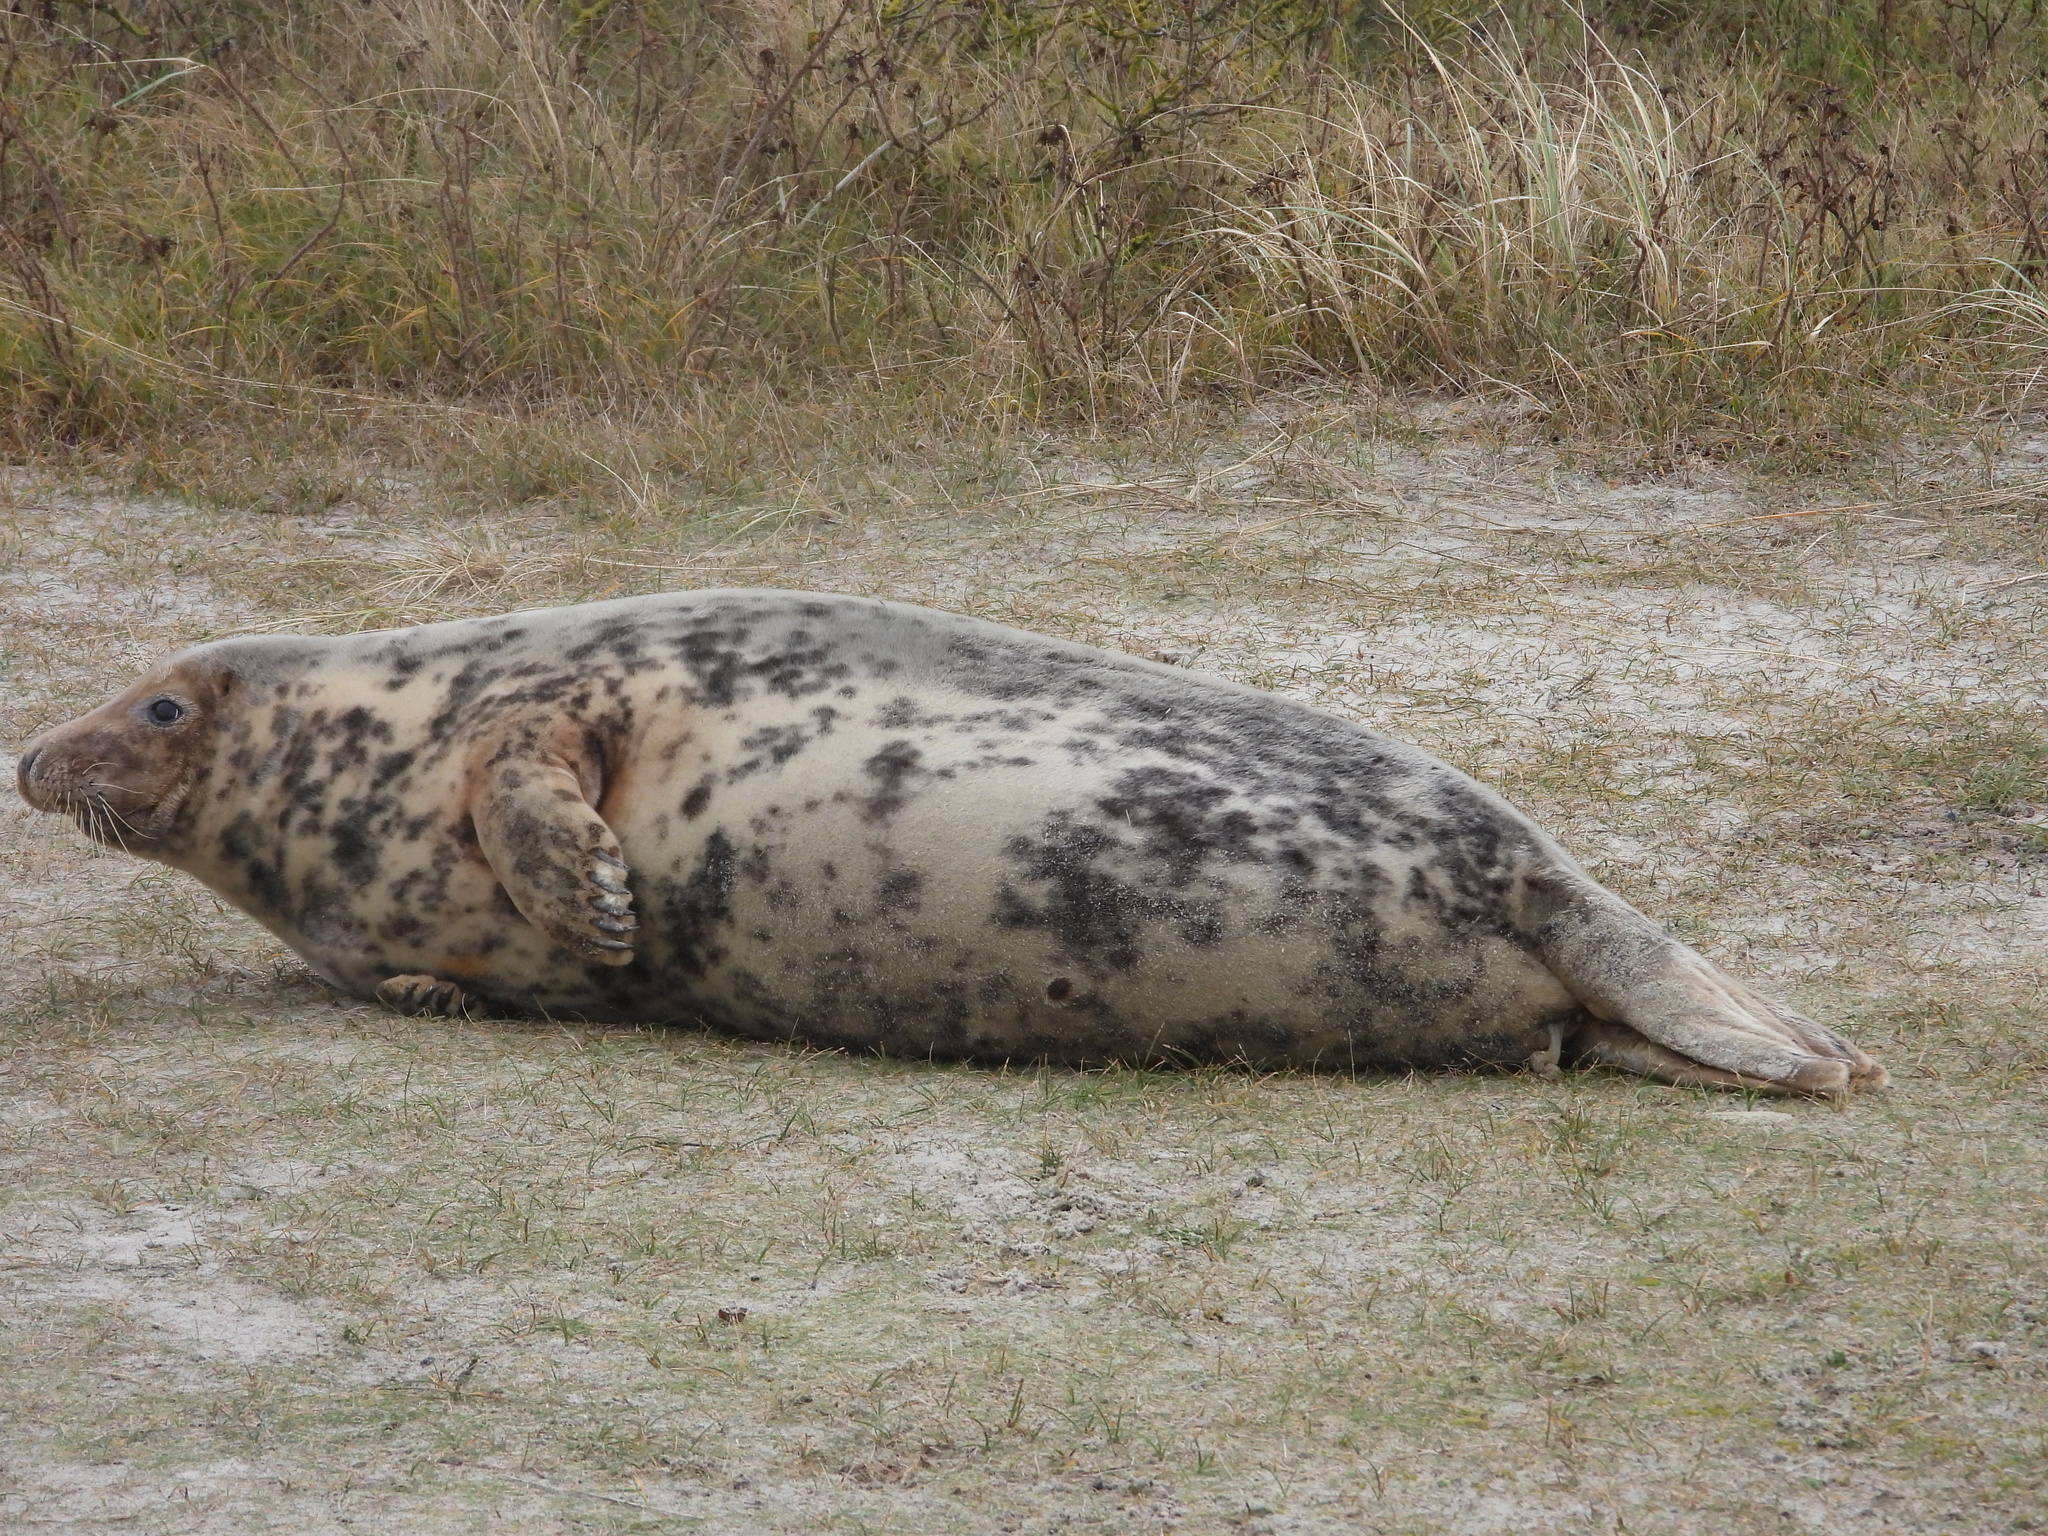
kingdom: Animalia
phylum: Chordata
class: Mammalia
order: Carnivora
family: Phocidae
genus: Halichoerus
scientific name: Halichoerus grypus
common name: Grey seal
